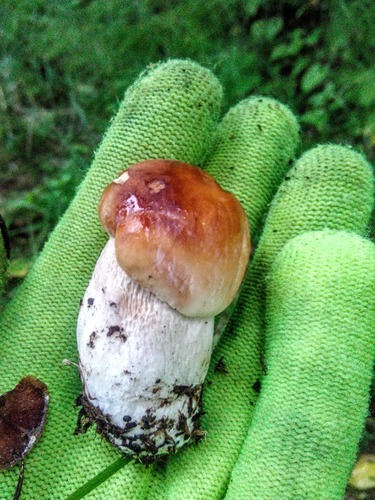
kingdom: Fungi
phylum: Basidiomycota
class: Agaricomycetes
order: Boletales
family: Boletaceae
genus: Boletus
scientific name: Boletus edulis
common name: Cep
